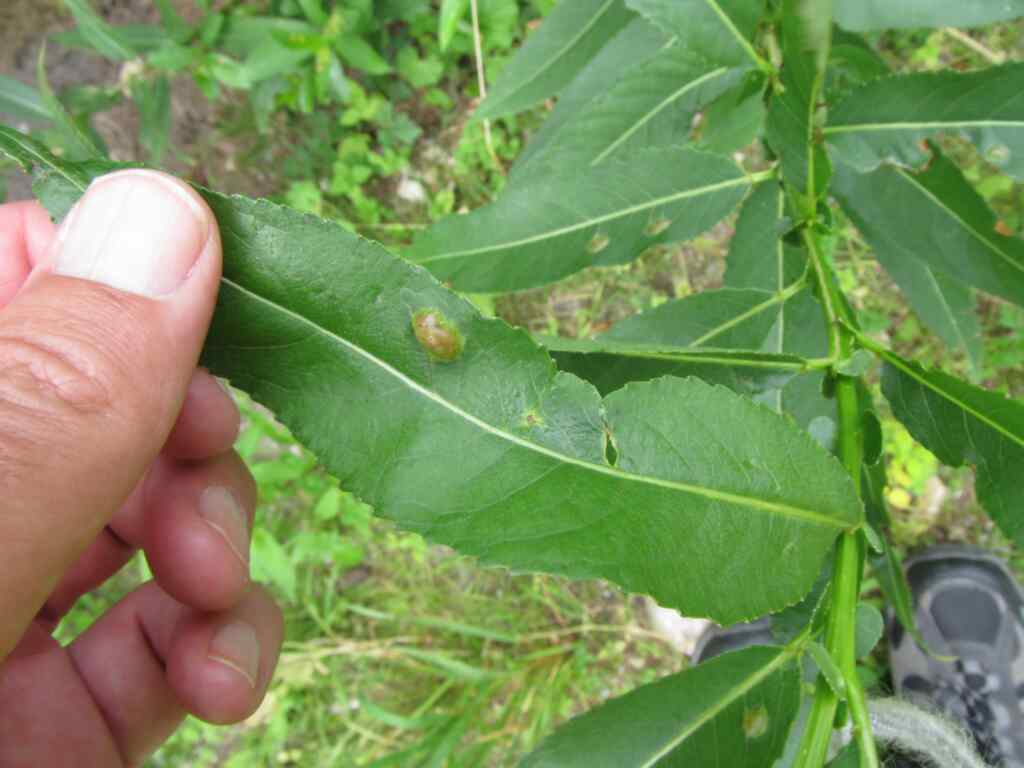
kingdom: Animalia
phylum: Arthropoda
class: Insecta
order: Hymenoptera
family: Tenthredinidae
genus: Pontania
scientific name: Pontania proxima
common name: Common sawfly
